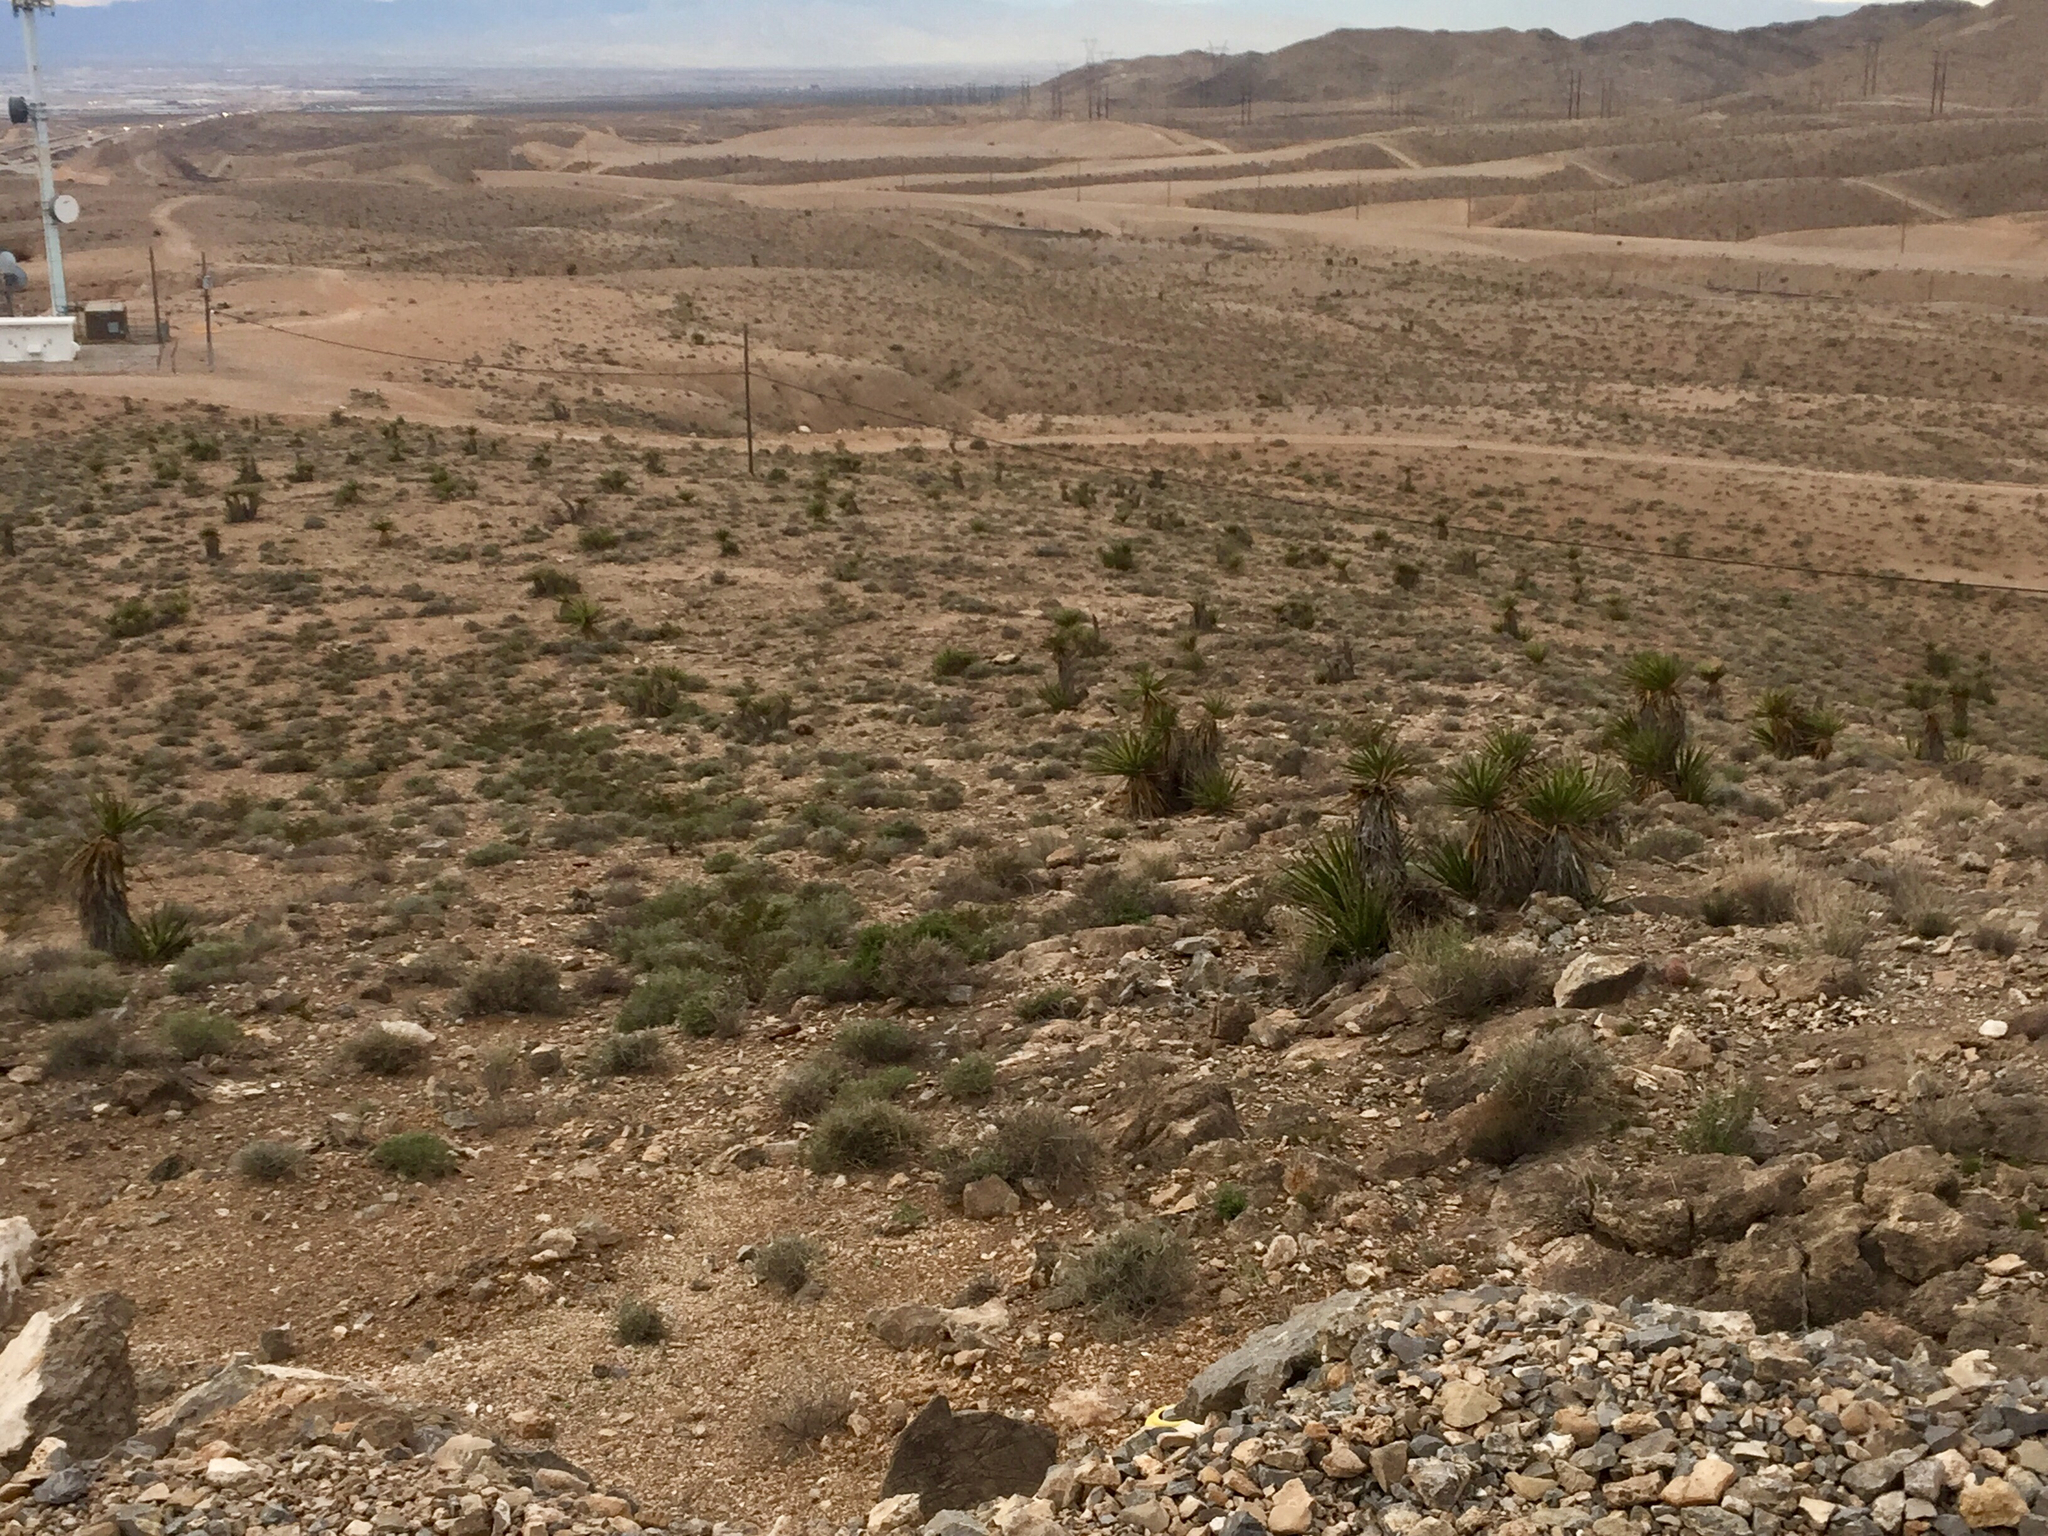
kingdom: Plantae
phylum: Tracheophyta
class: Liliopsida
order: Asparagales
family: Asparagaceae
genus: Yucca
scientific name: Yucca schidigera
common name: Mojave yucca
